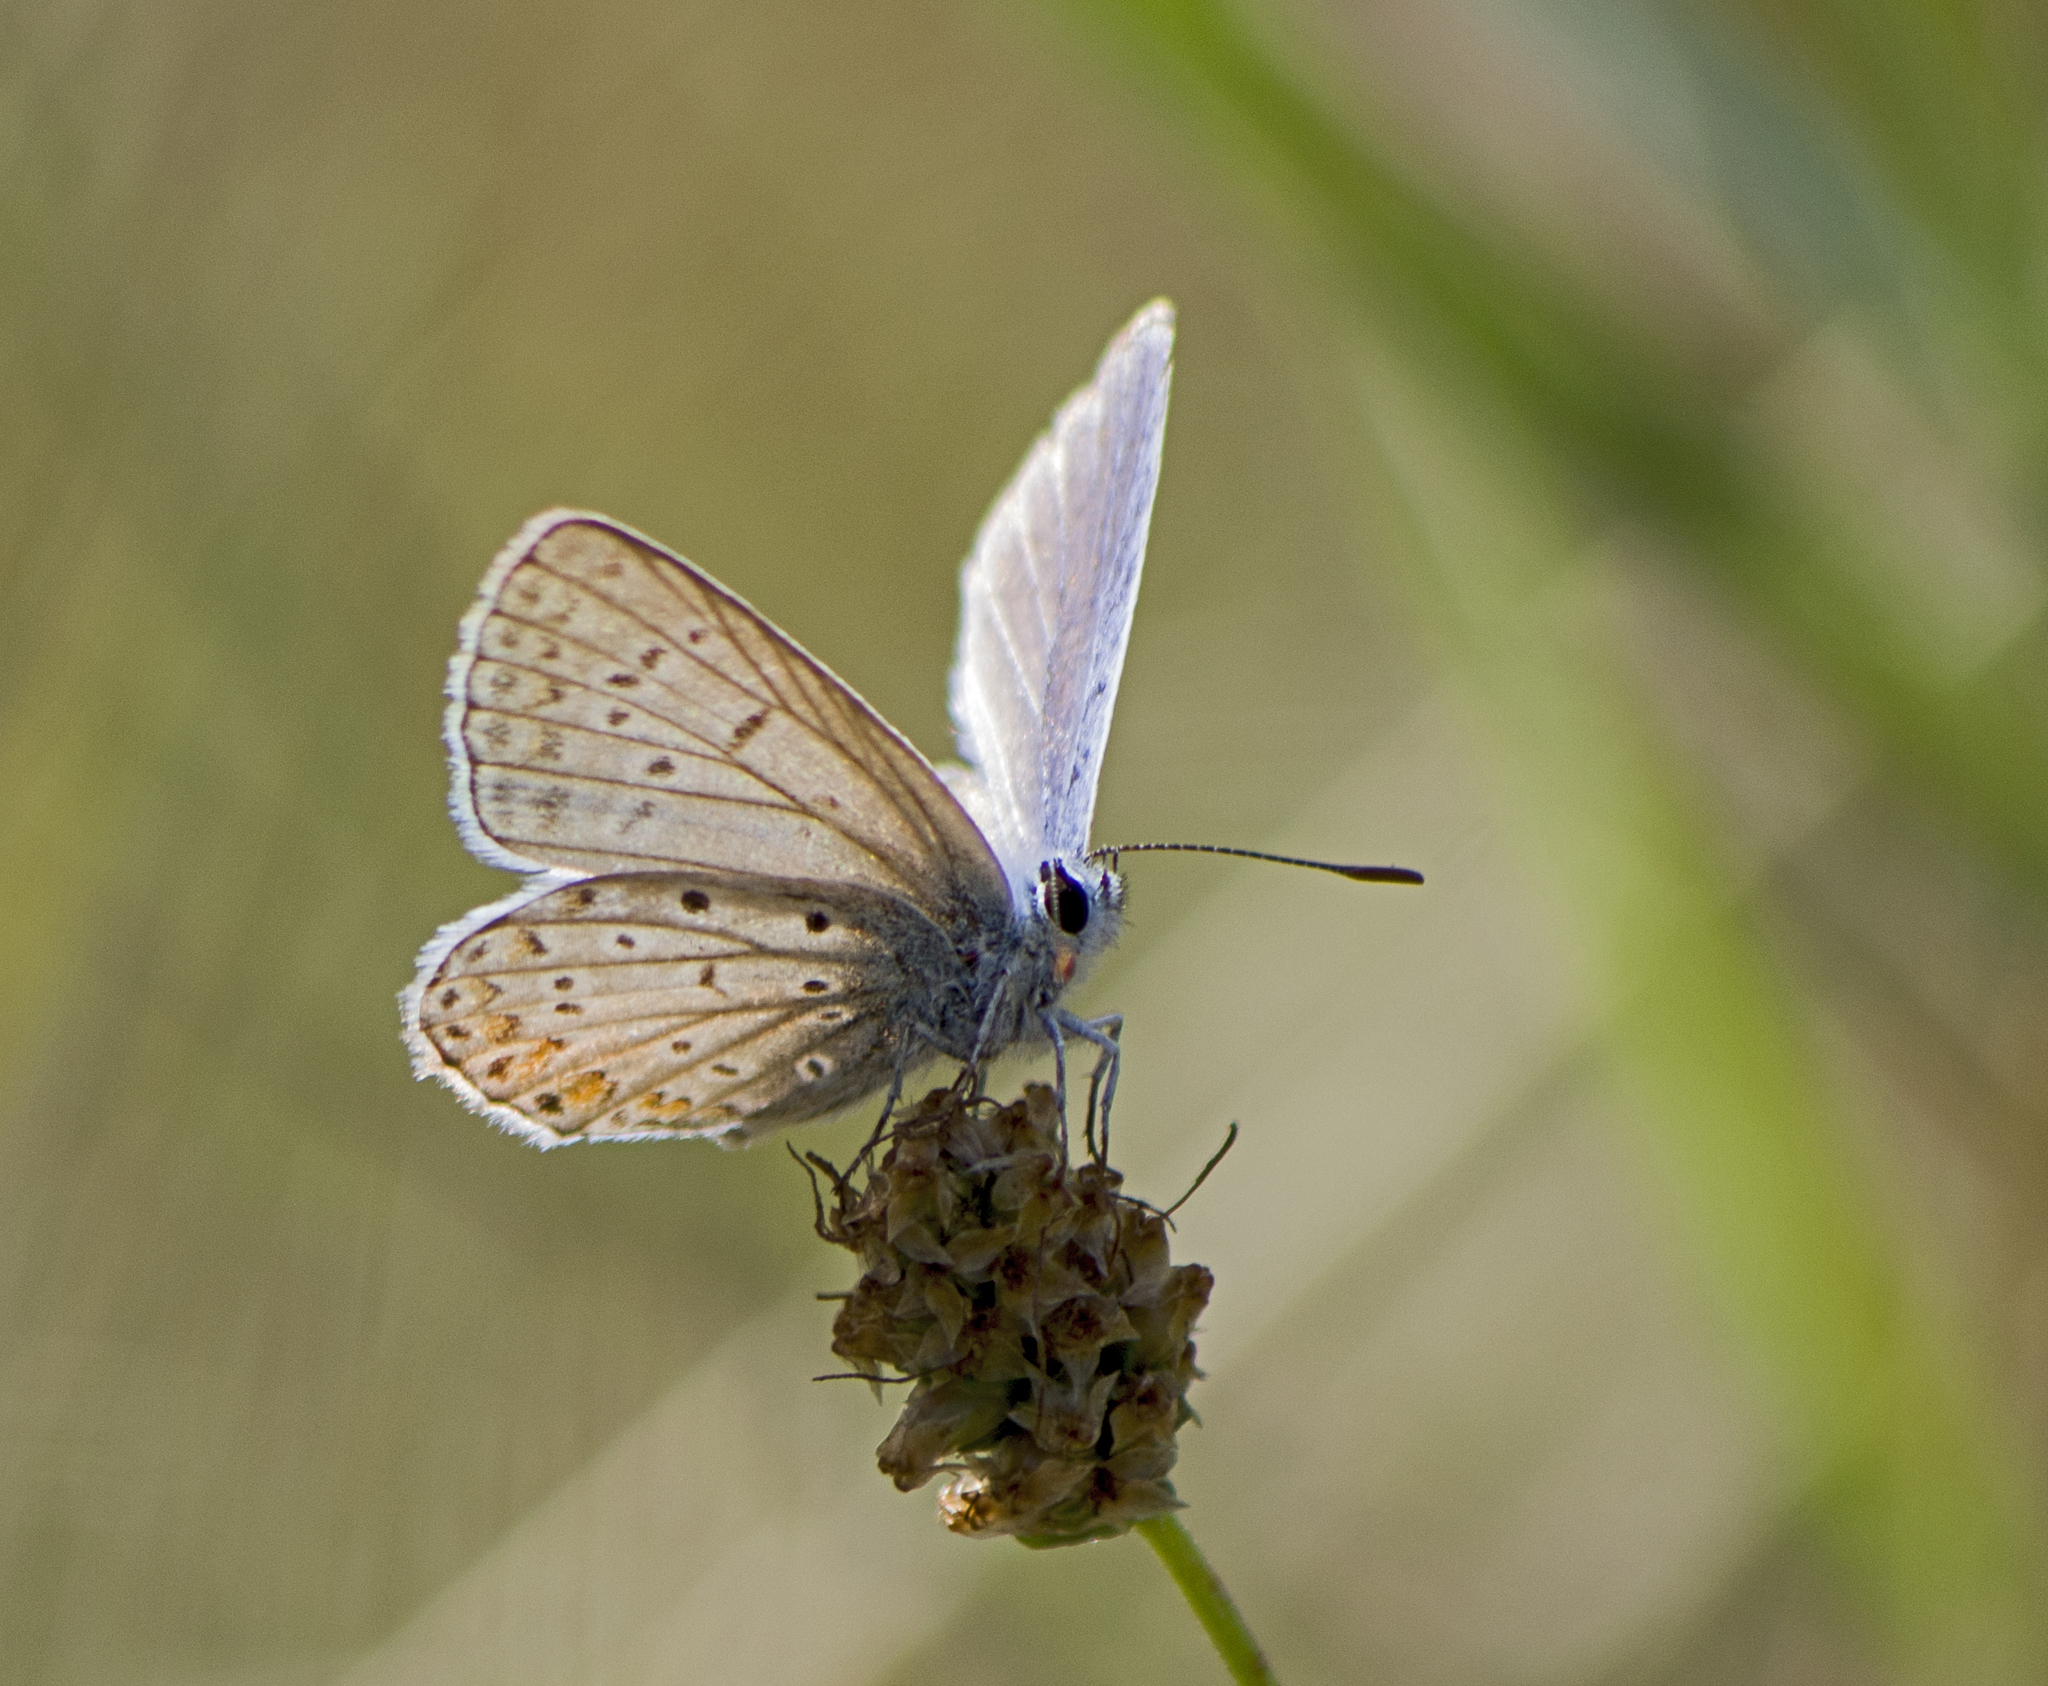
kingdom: Animalia
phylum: Arthropoda
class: Insecta
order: Lepidoptera
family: Lycaenidae
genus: Polyommatus
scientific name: Polyommatus icarus
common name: Common blue
